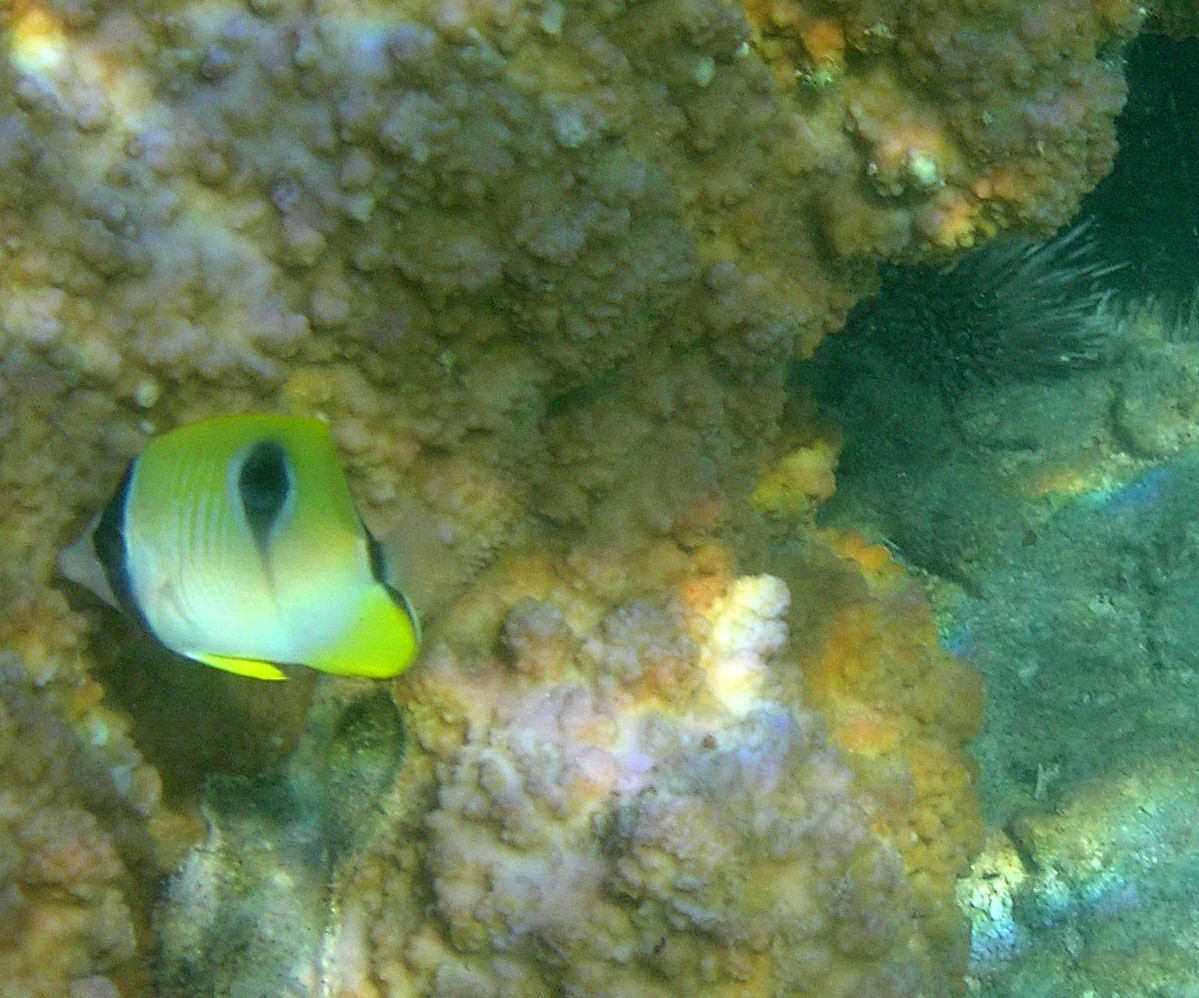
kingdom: Animalia
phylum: Chordata
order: Perciformes
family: Chaetodontidae
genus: Chaetodon
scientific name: Chaetodon unimaculatus
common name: Teardrop butterflyfish
